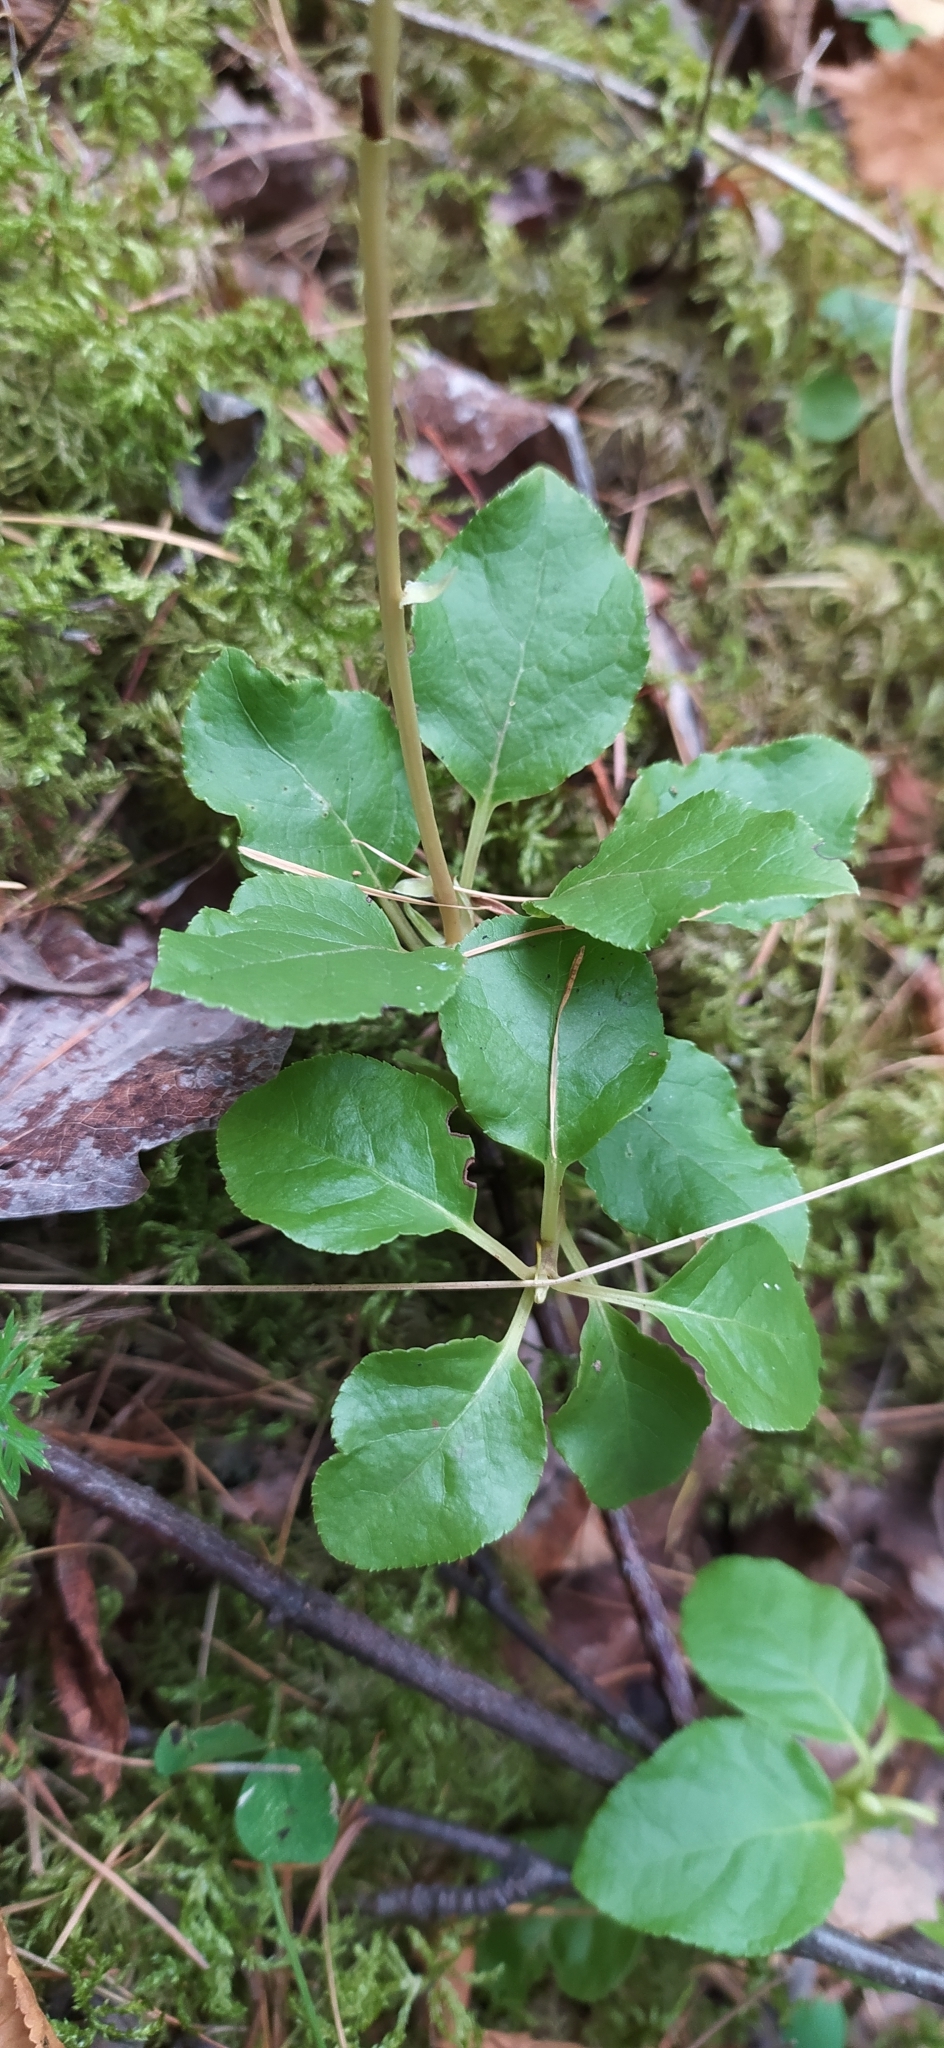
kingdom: Plantae
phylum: Tracheophyta
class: Magnoliopsida
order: Ericales
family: Ericaceae
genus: Orthilia
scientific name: Orthilia secunda
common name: One-sided orthilia
